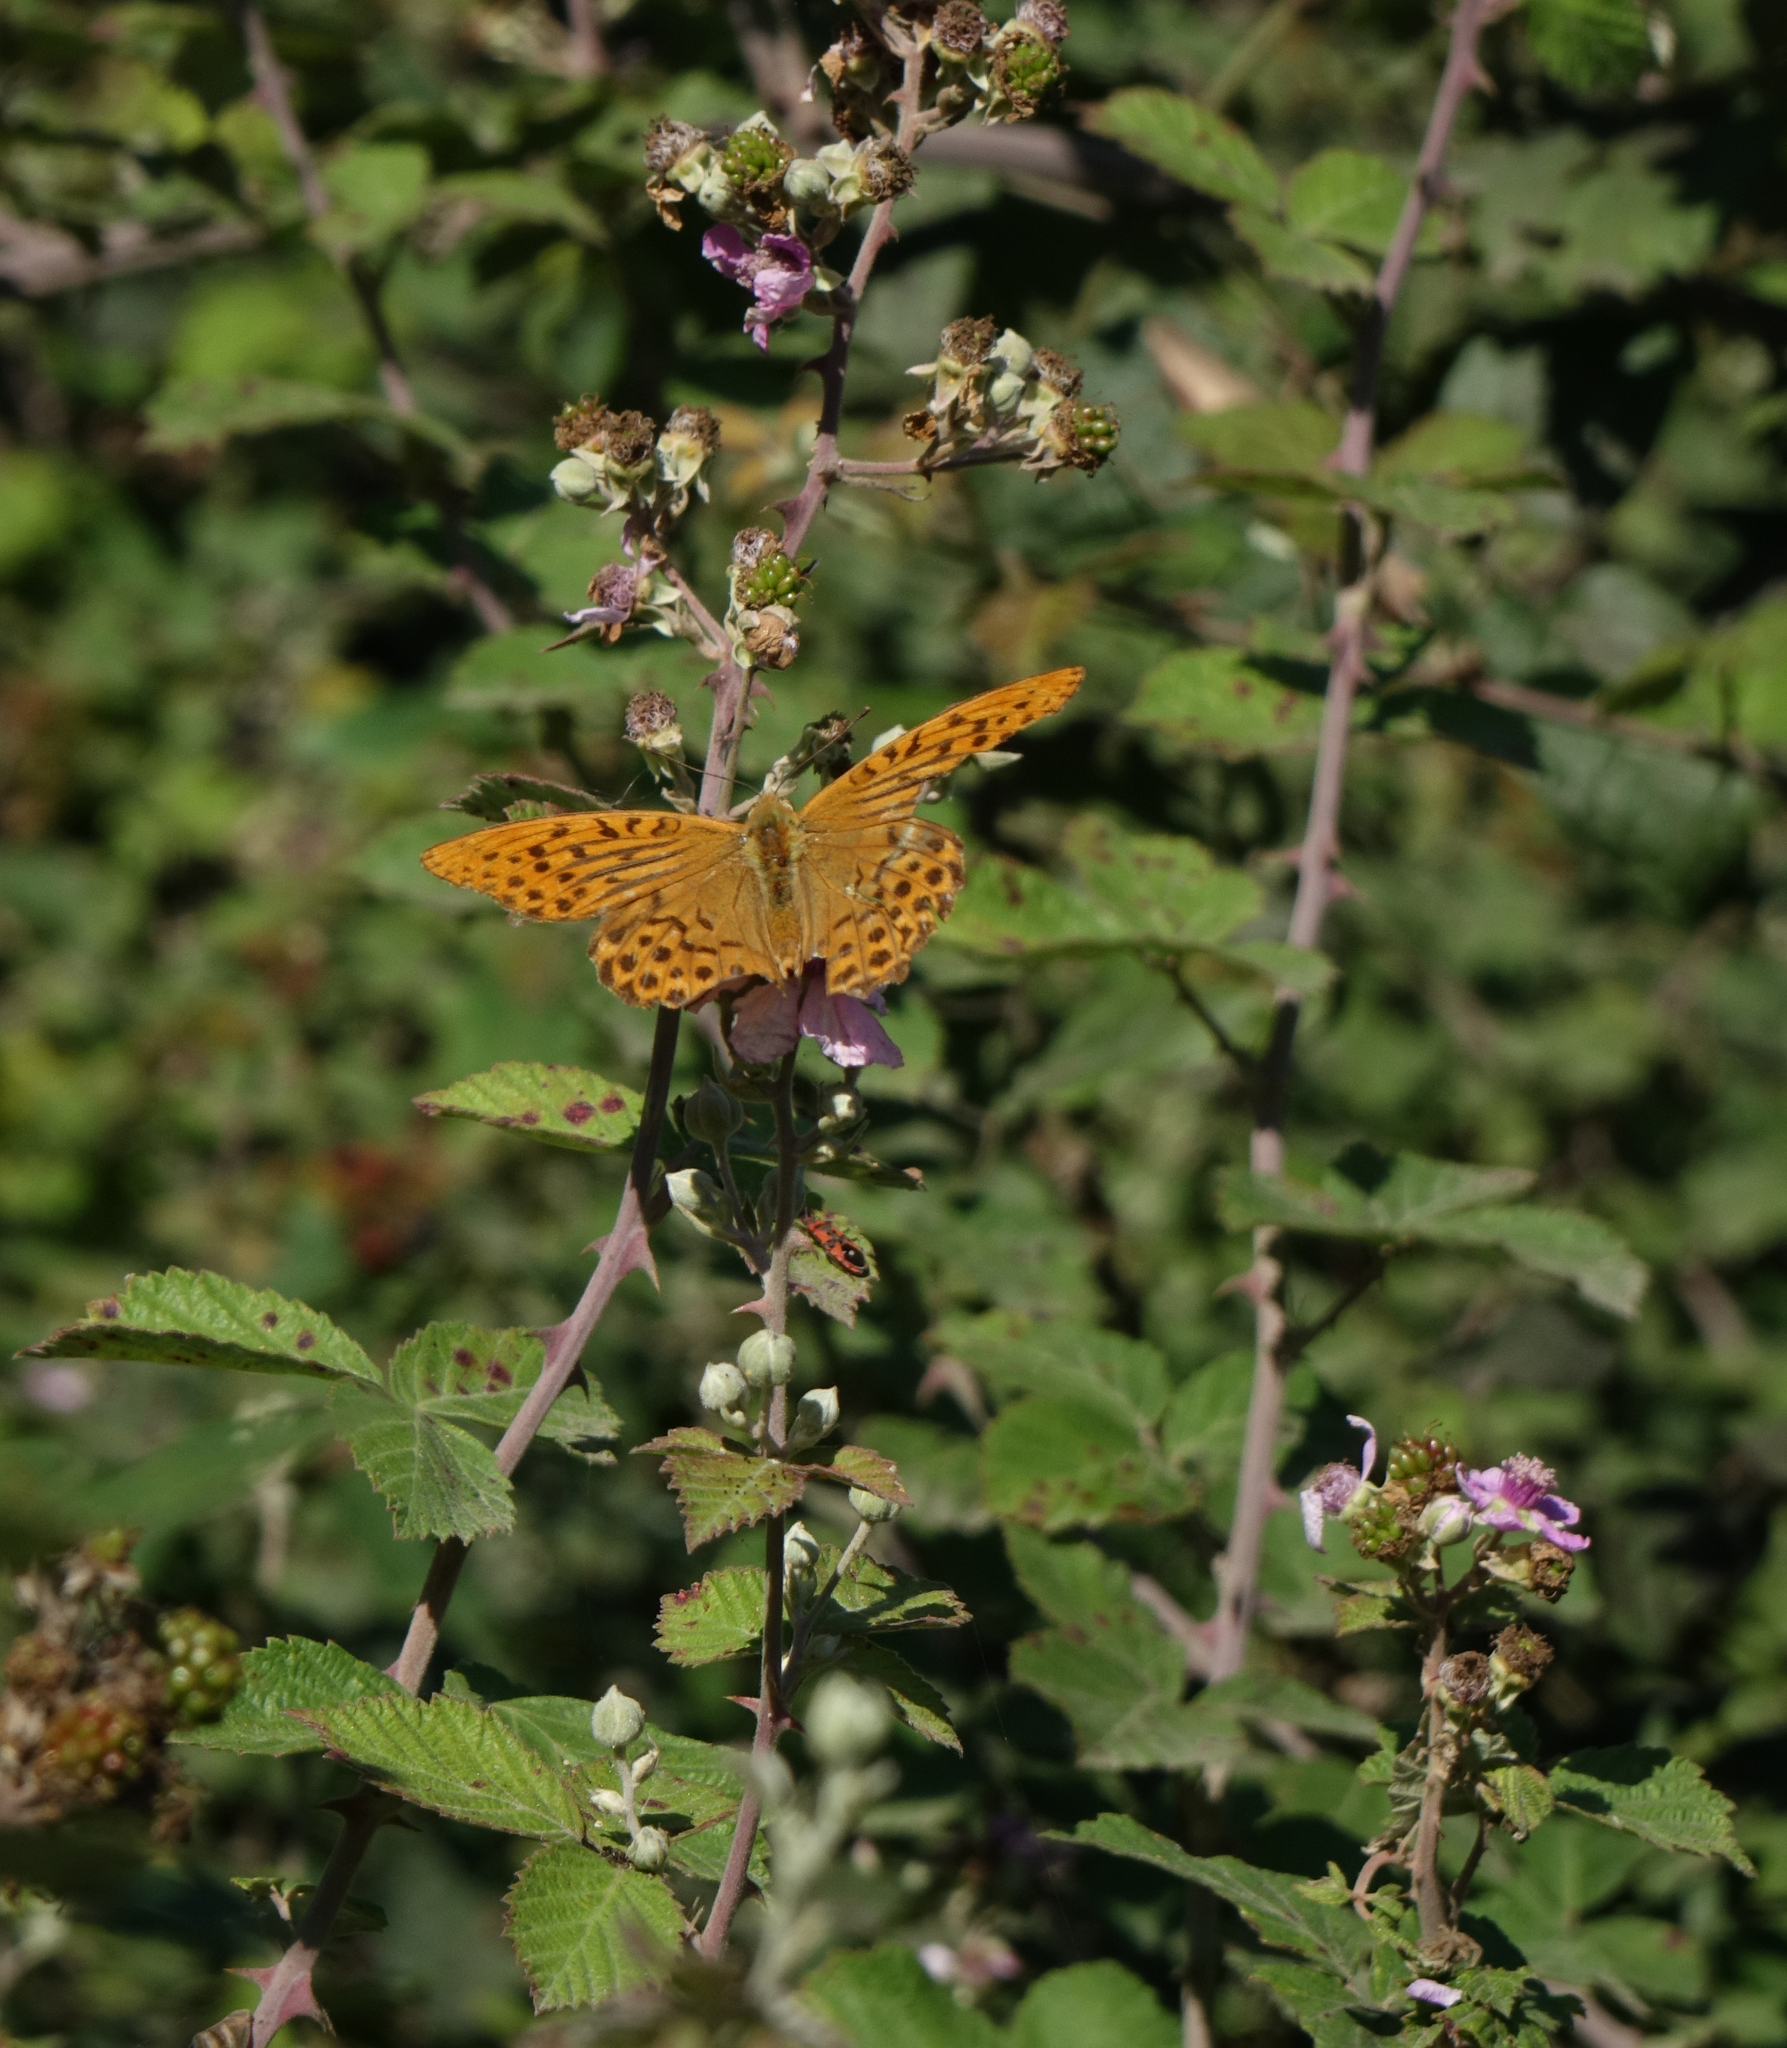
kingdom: Animalia
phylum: Arthropoda
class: Insecta
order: Lepidoptera
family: Nymphalidae
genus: Argynnis
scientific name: Argynnis paphia
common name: Silver-washed fritillary
